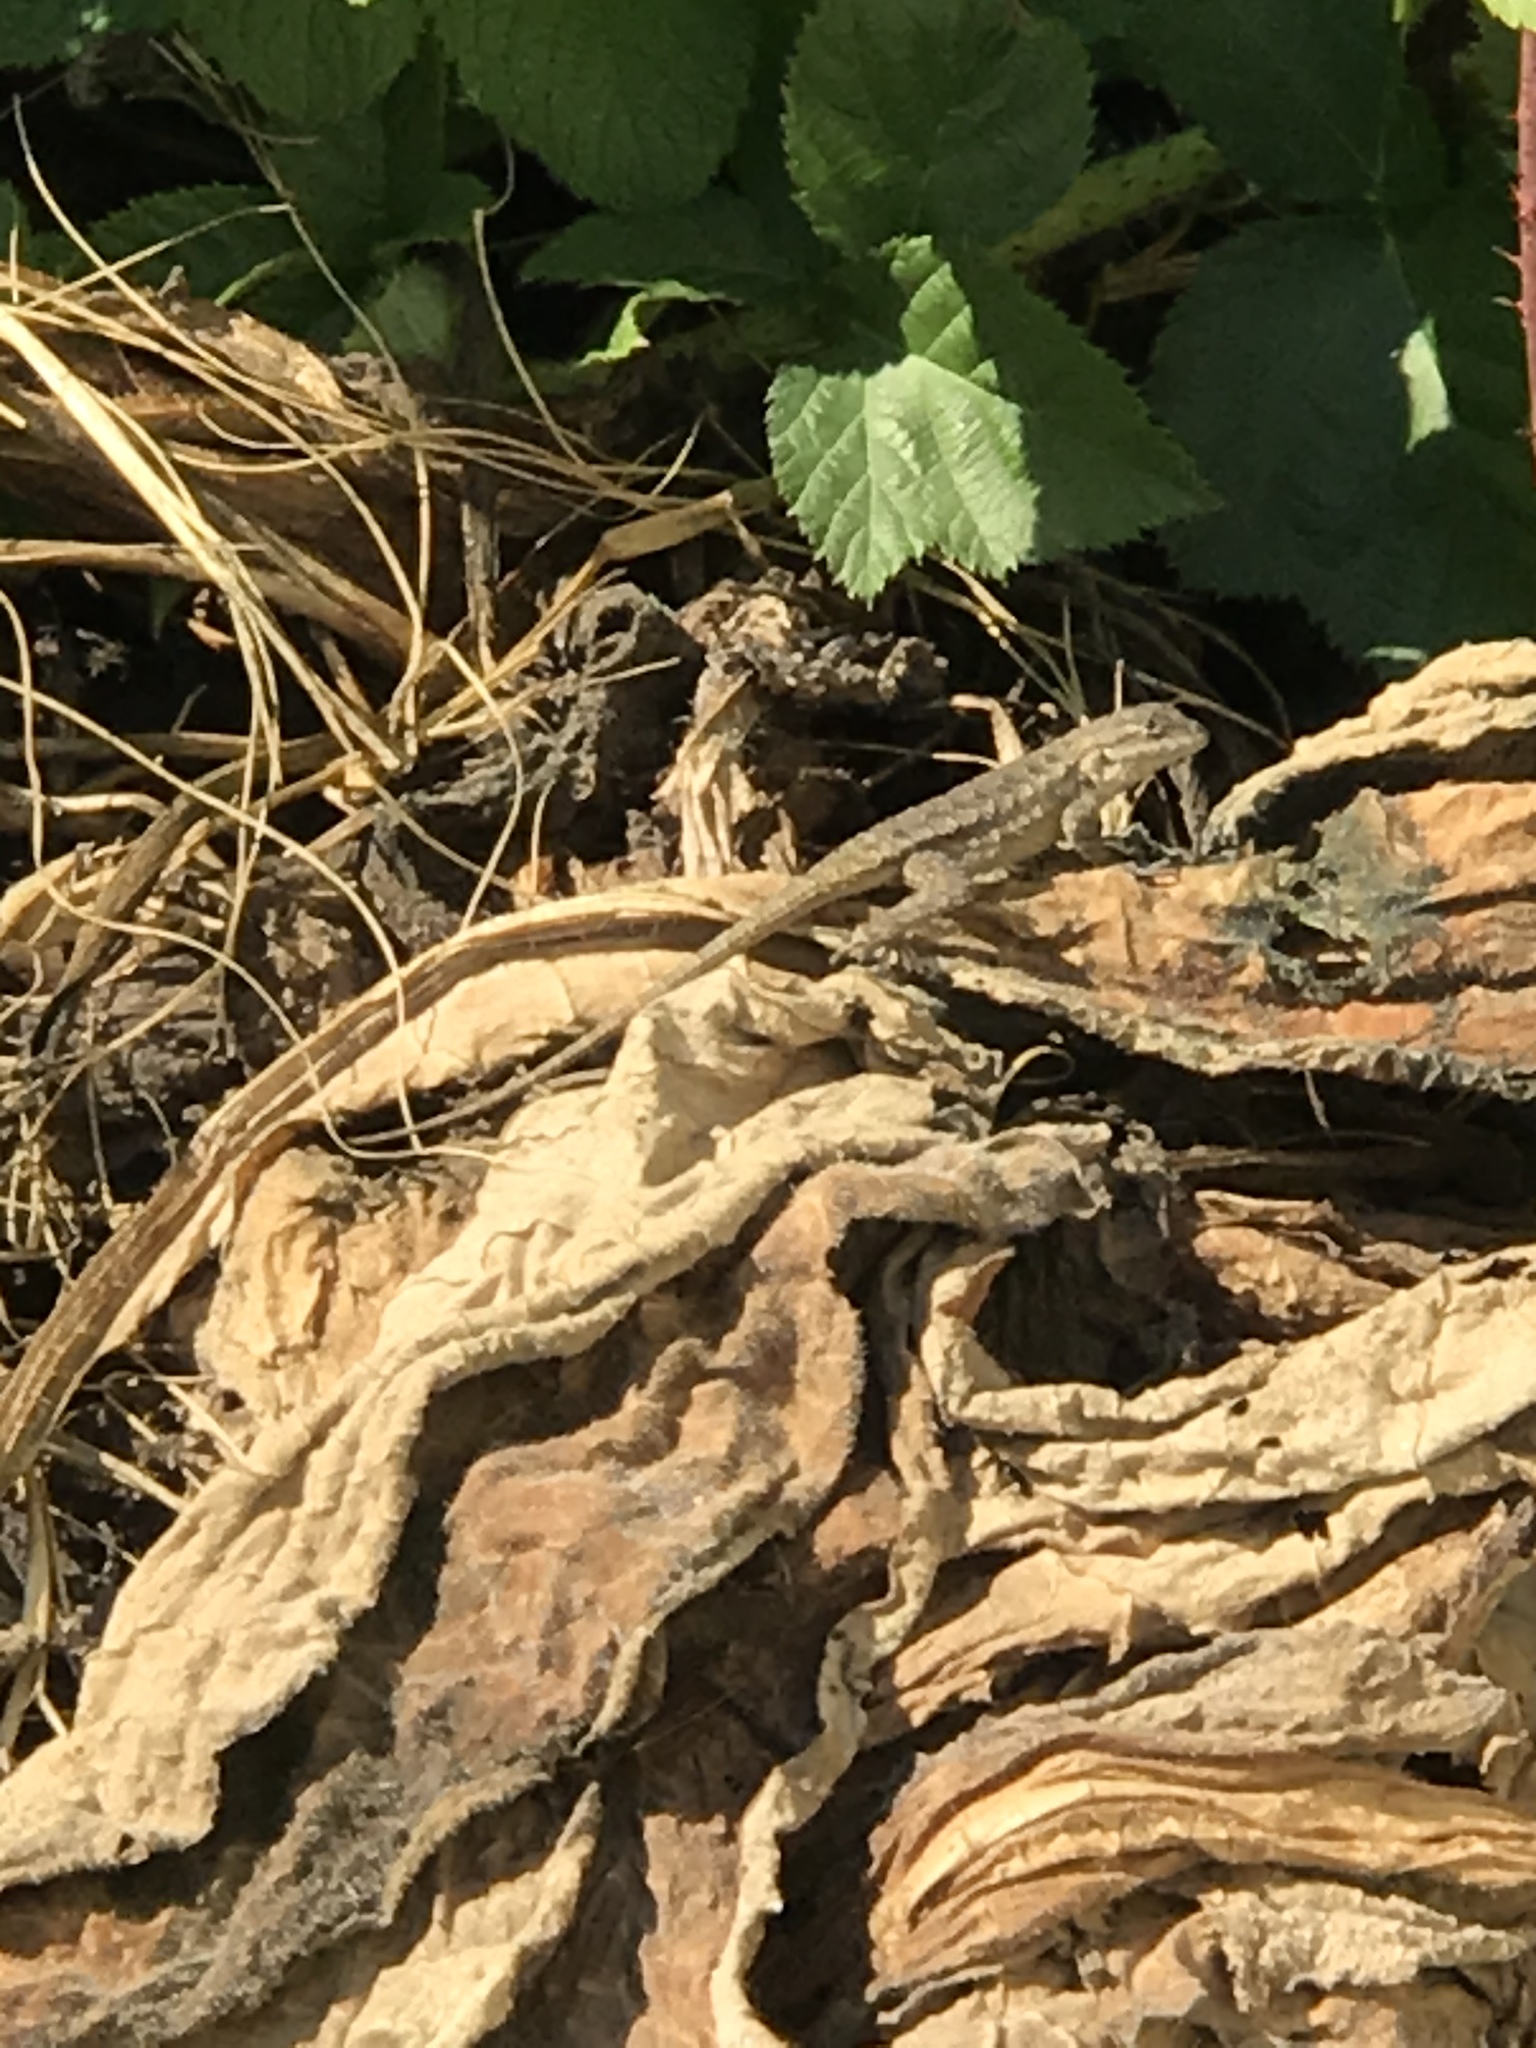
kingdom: Animalia
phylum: Chordata
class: Squamata
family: Phrynosomatidae
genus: Sceloporus
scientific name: Sceloporus occidentalis
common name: Western fence lizard
